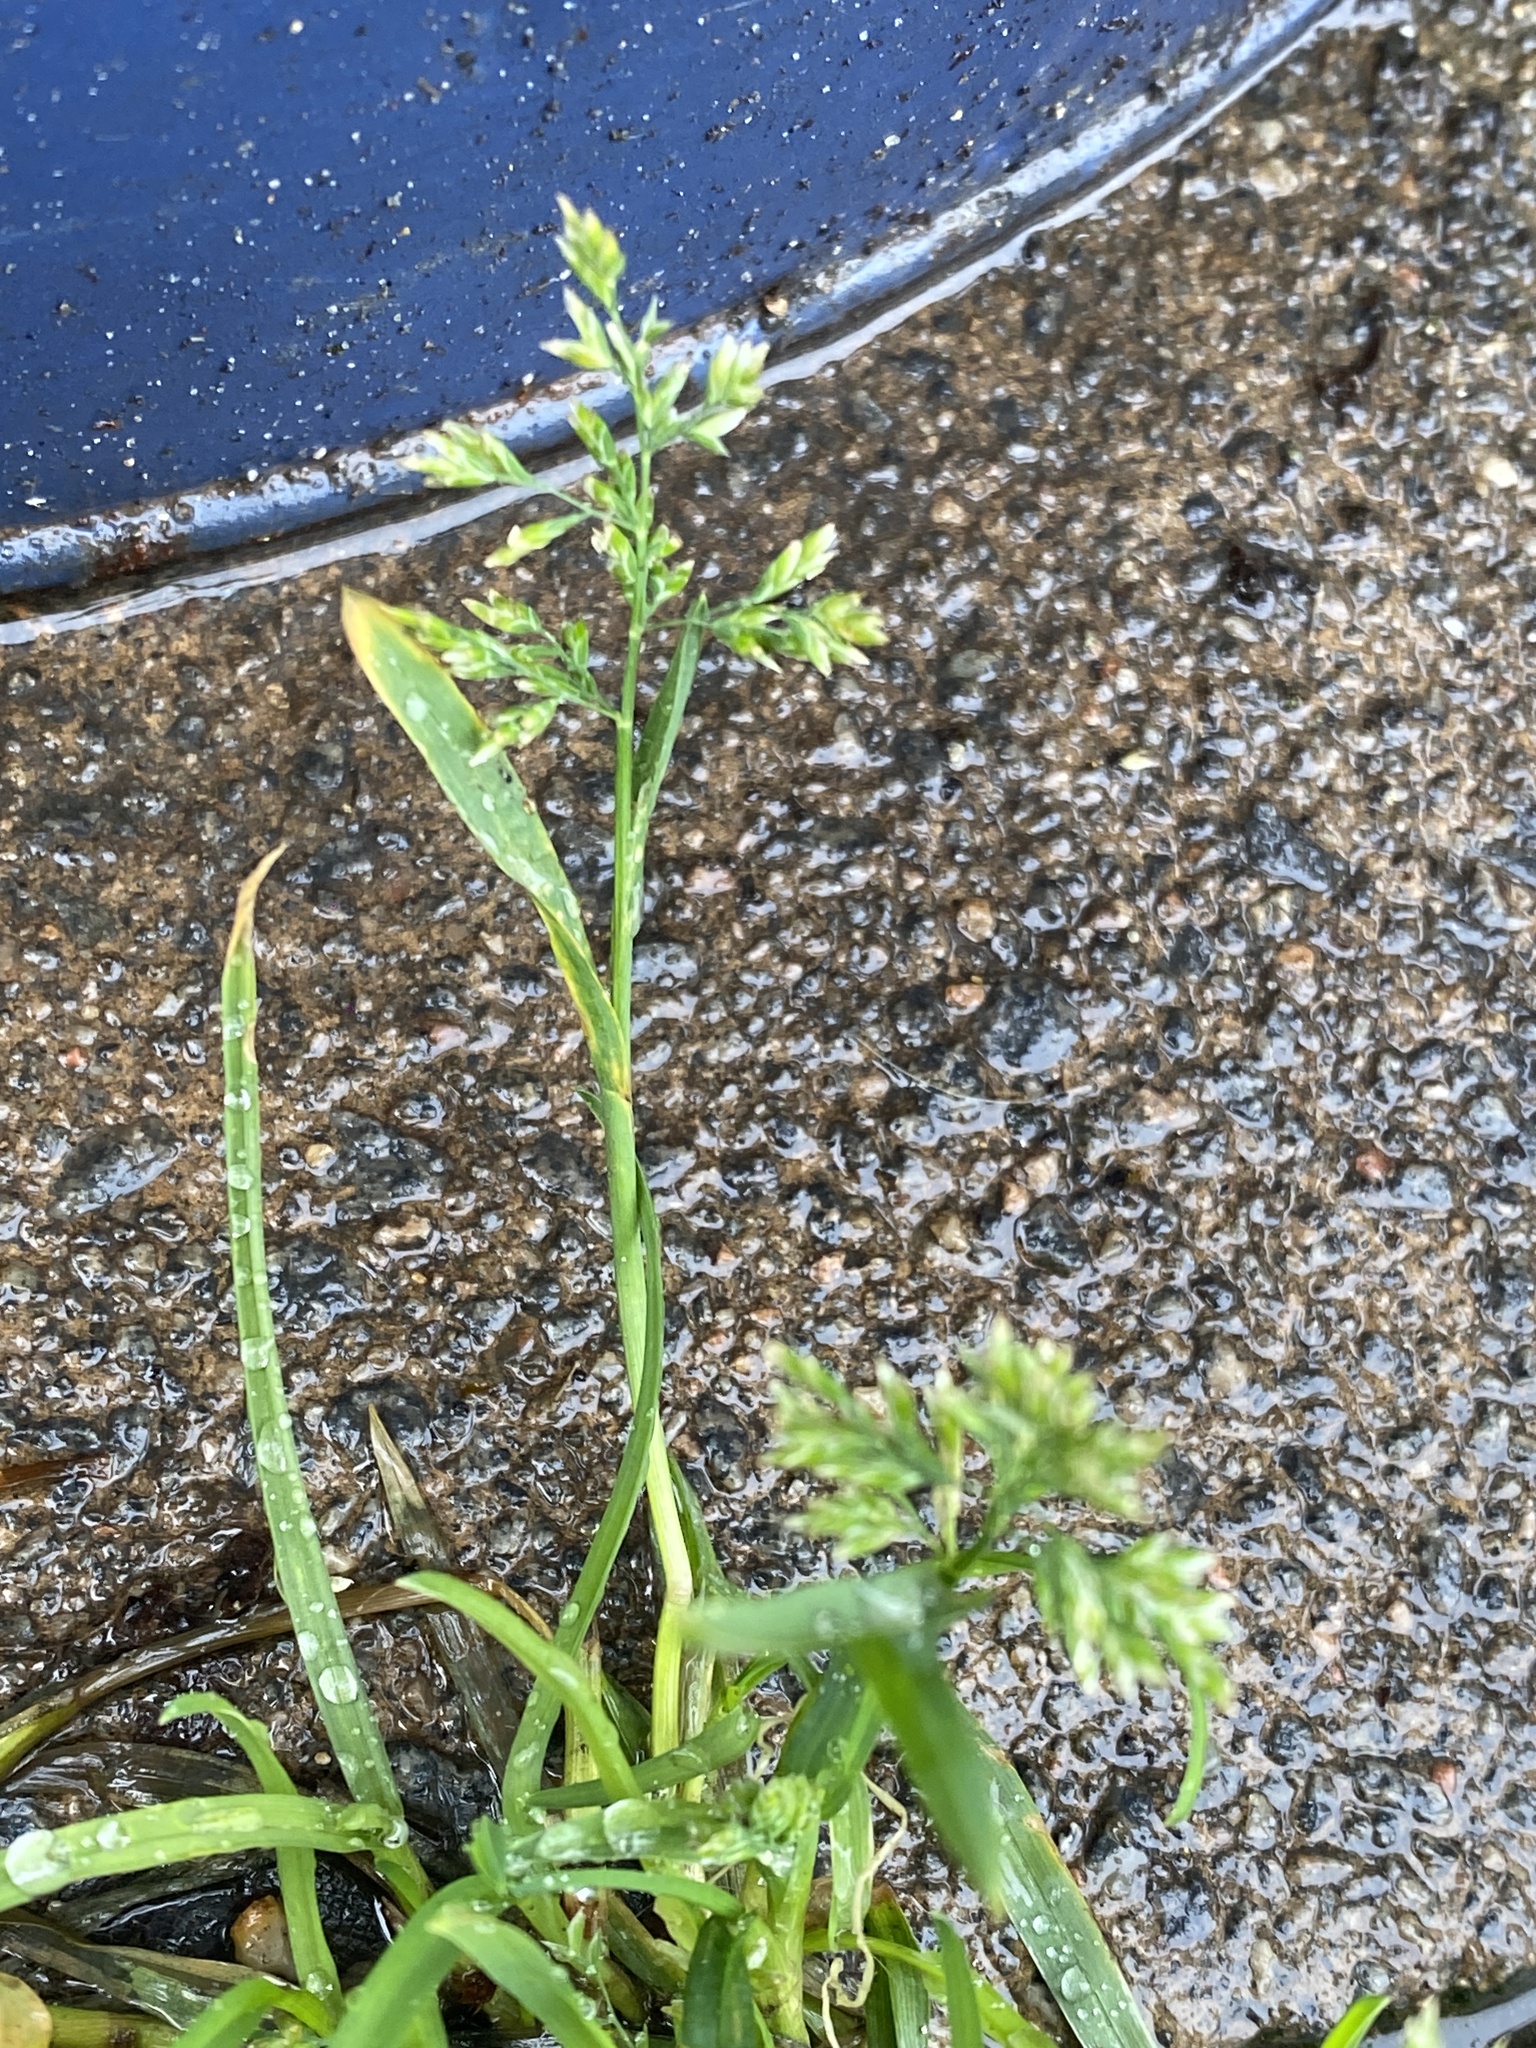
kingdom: Plantae
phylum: Tracheophyta
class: Liliopsida
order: Poales
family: Poaceae
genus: Poa
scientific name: Poa annua
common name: Annual bluegrass
